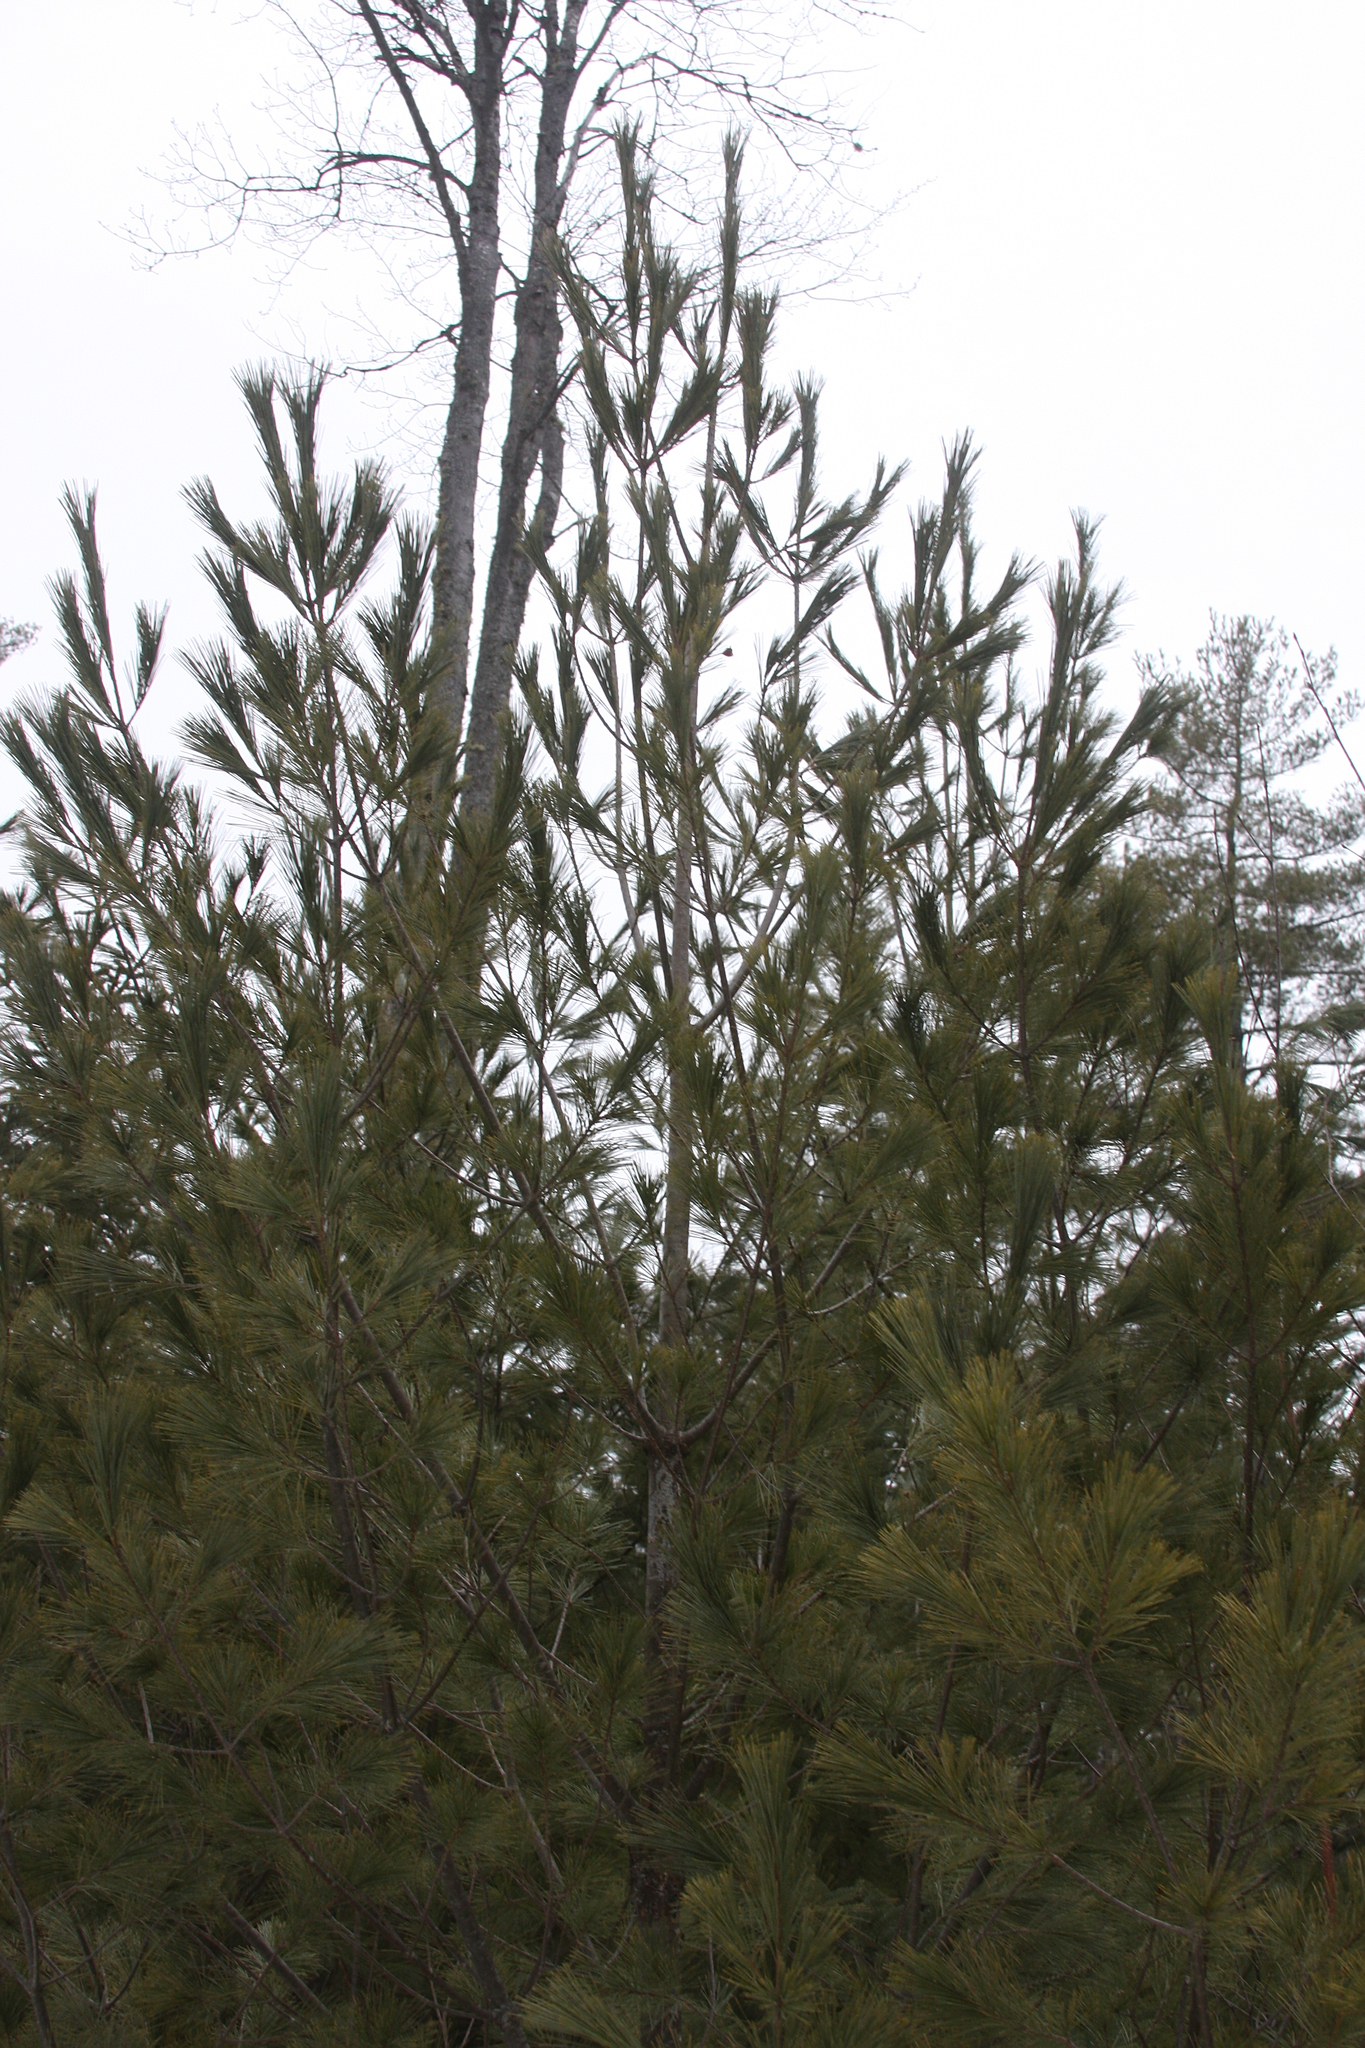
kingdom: Plantae
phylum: Tracheophyta
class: Pinopsida
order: Pinales
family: Pinaceae
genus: Pinus
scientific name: Pinus strobus
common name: Weymouth pine
